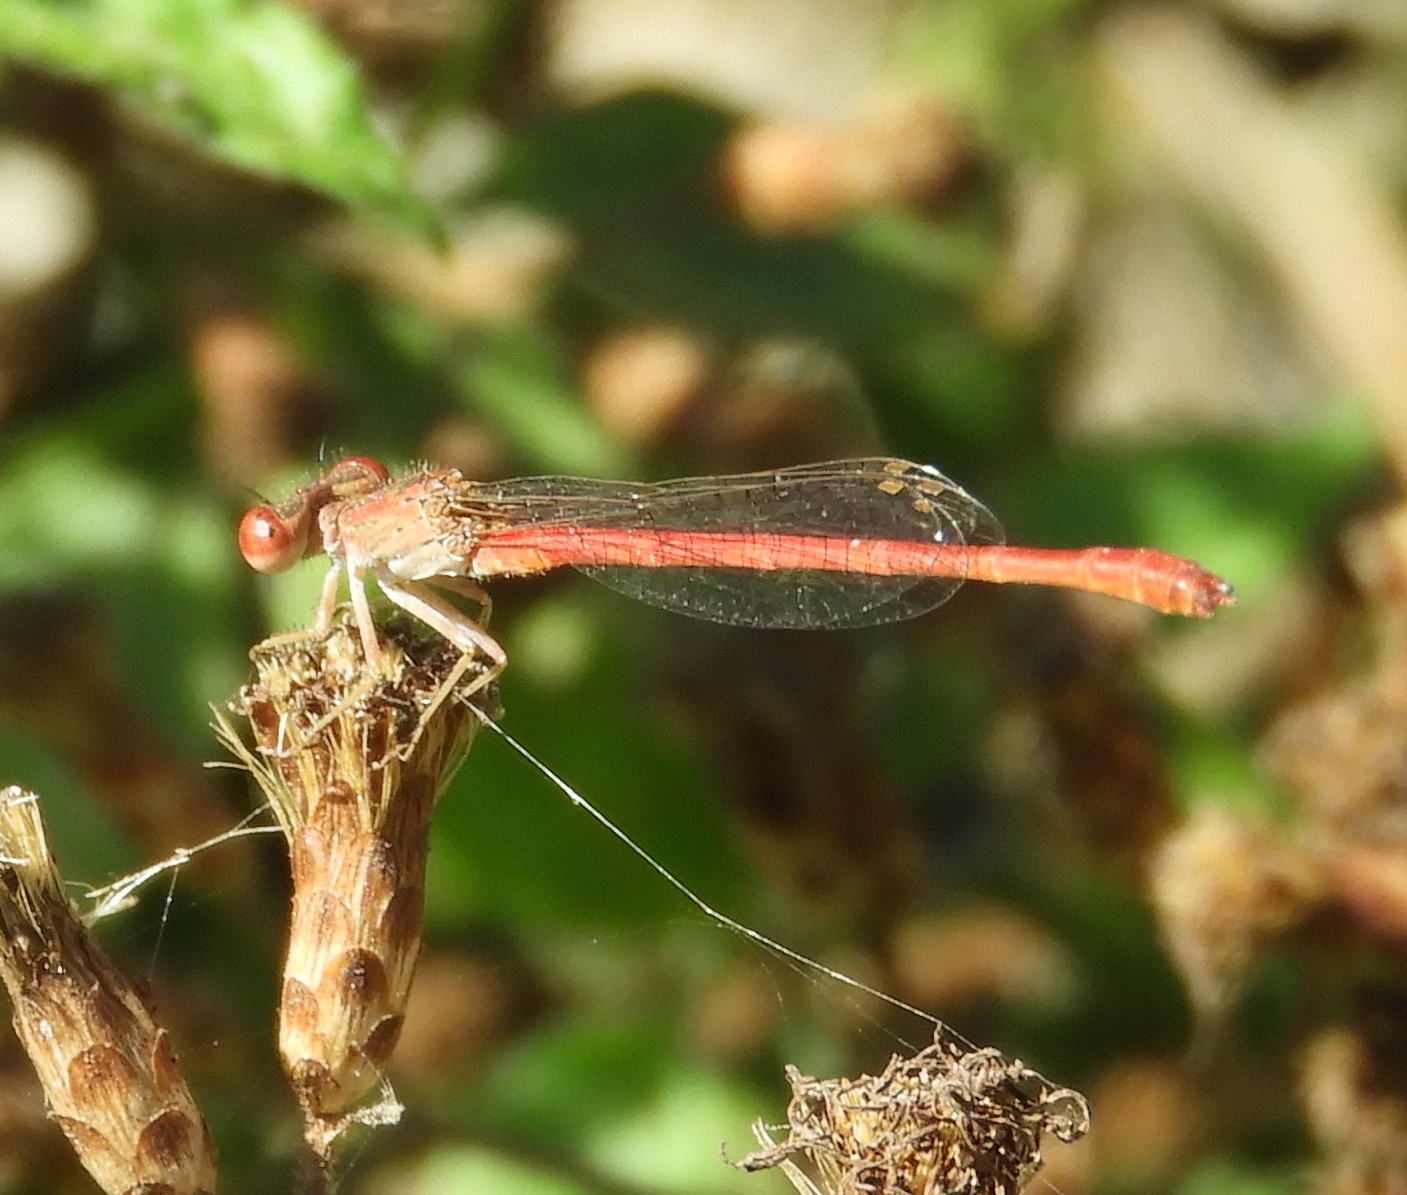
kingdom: Animalia
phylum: Arthropoda
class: Insecta
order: Odonata
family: Coenagrionidae
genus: Telebasis
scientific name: Telebasis salva
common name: Desert firetail
